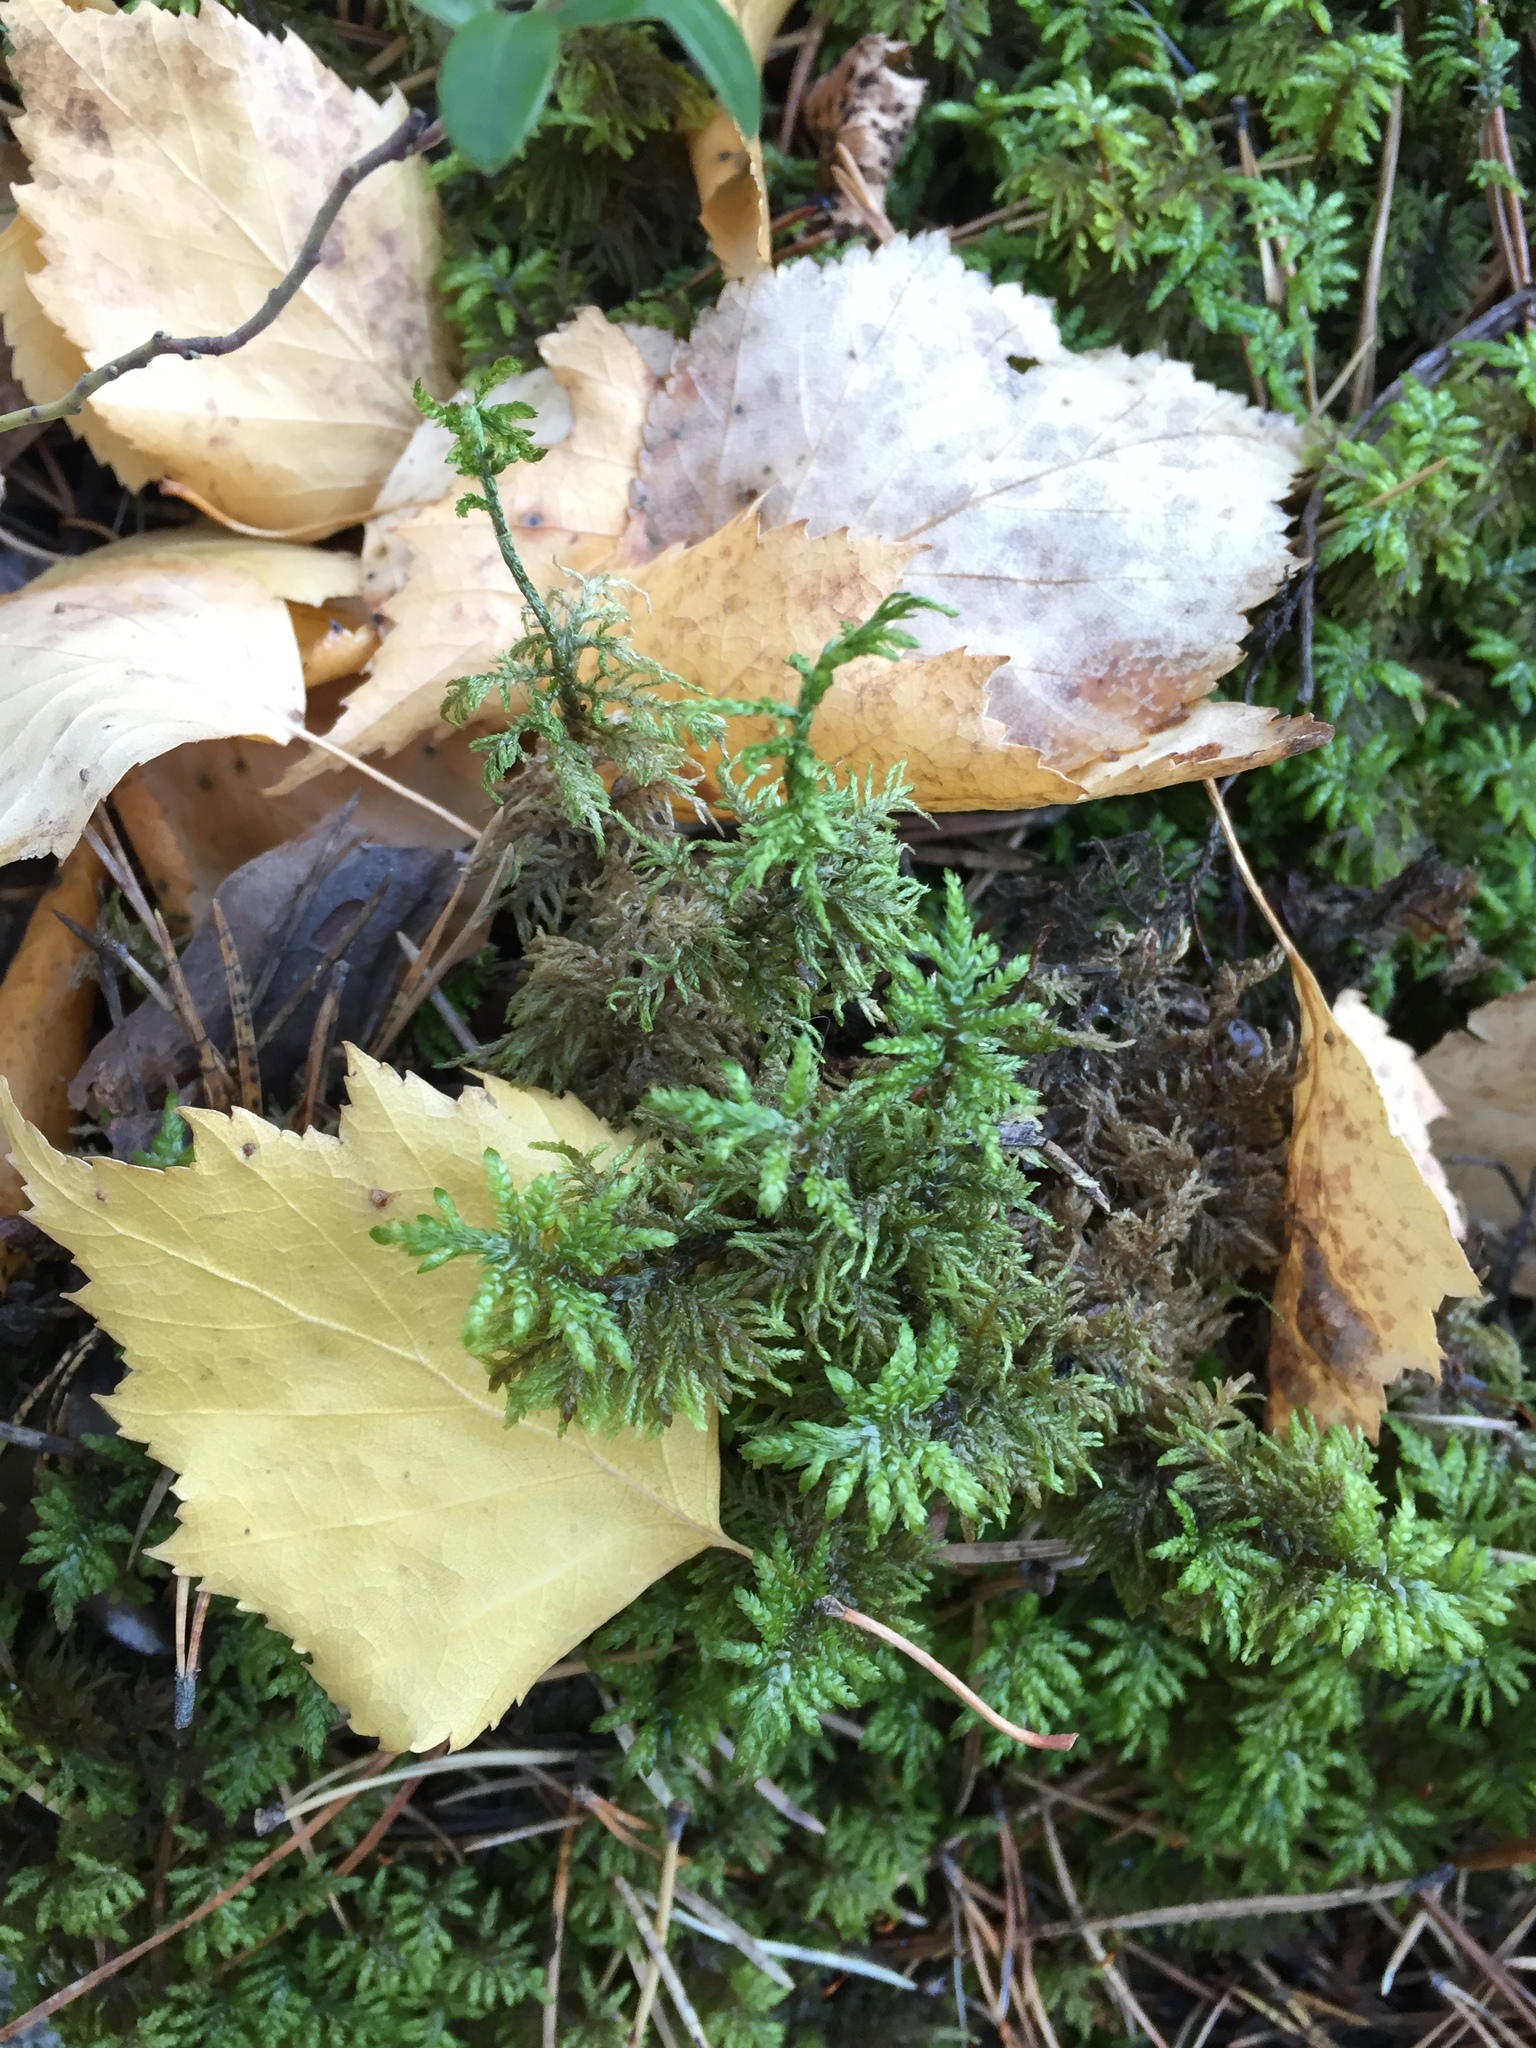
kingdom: Plantae
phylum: Bryophyta
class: Bryopsida
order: Hypnales
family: Hylocomiaceae
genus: Hylocomium
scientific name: Hylocomium splendens
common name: Stairstep moss
